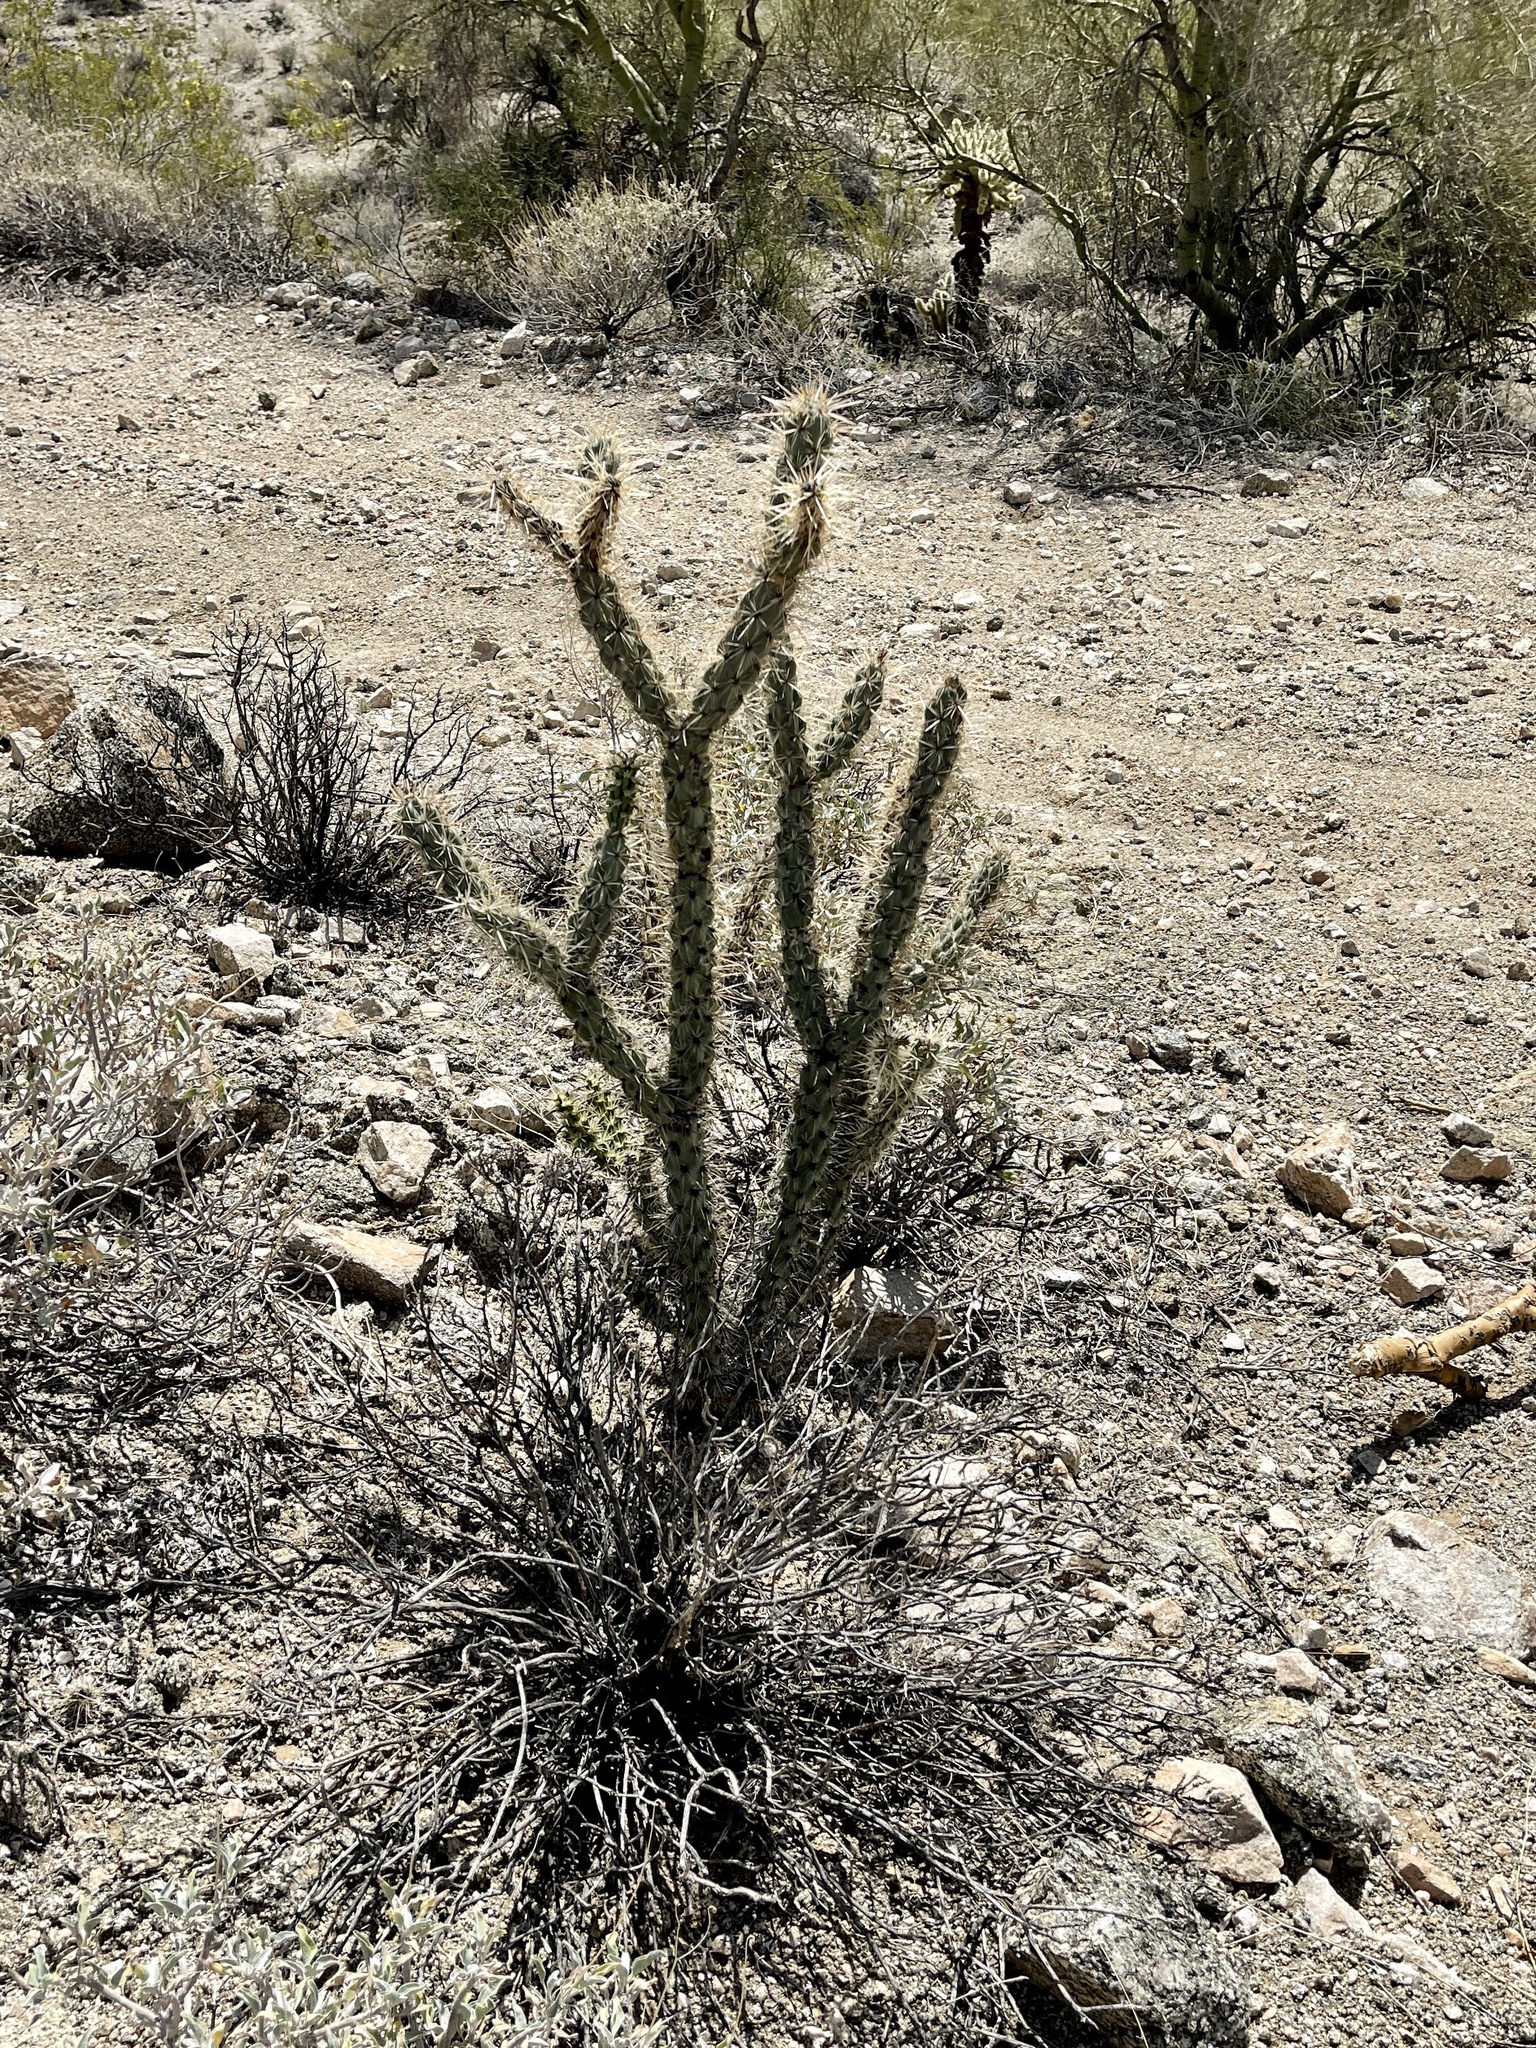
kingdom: Plantae
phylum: Tracheophyta
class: Magnoliopsida
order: Caryophyllales
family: Cactaceae
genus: Cylindropuntia
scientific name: Cylindropuntia acanthocarpa
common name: Buckhorn cholla
